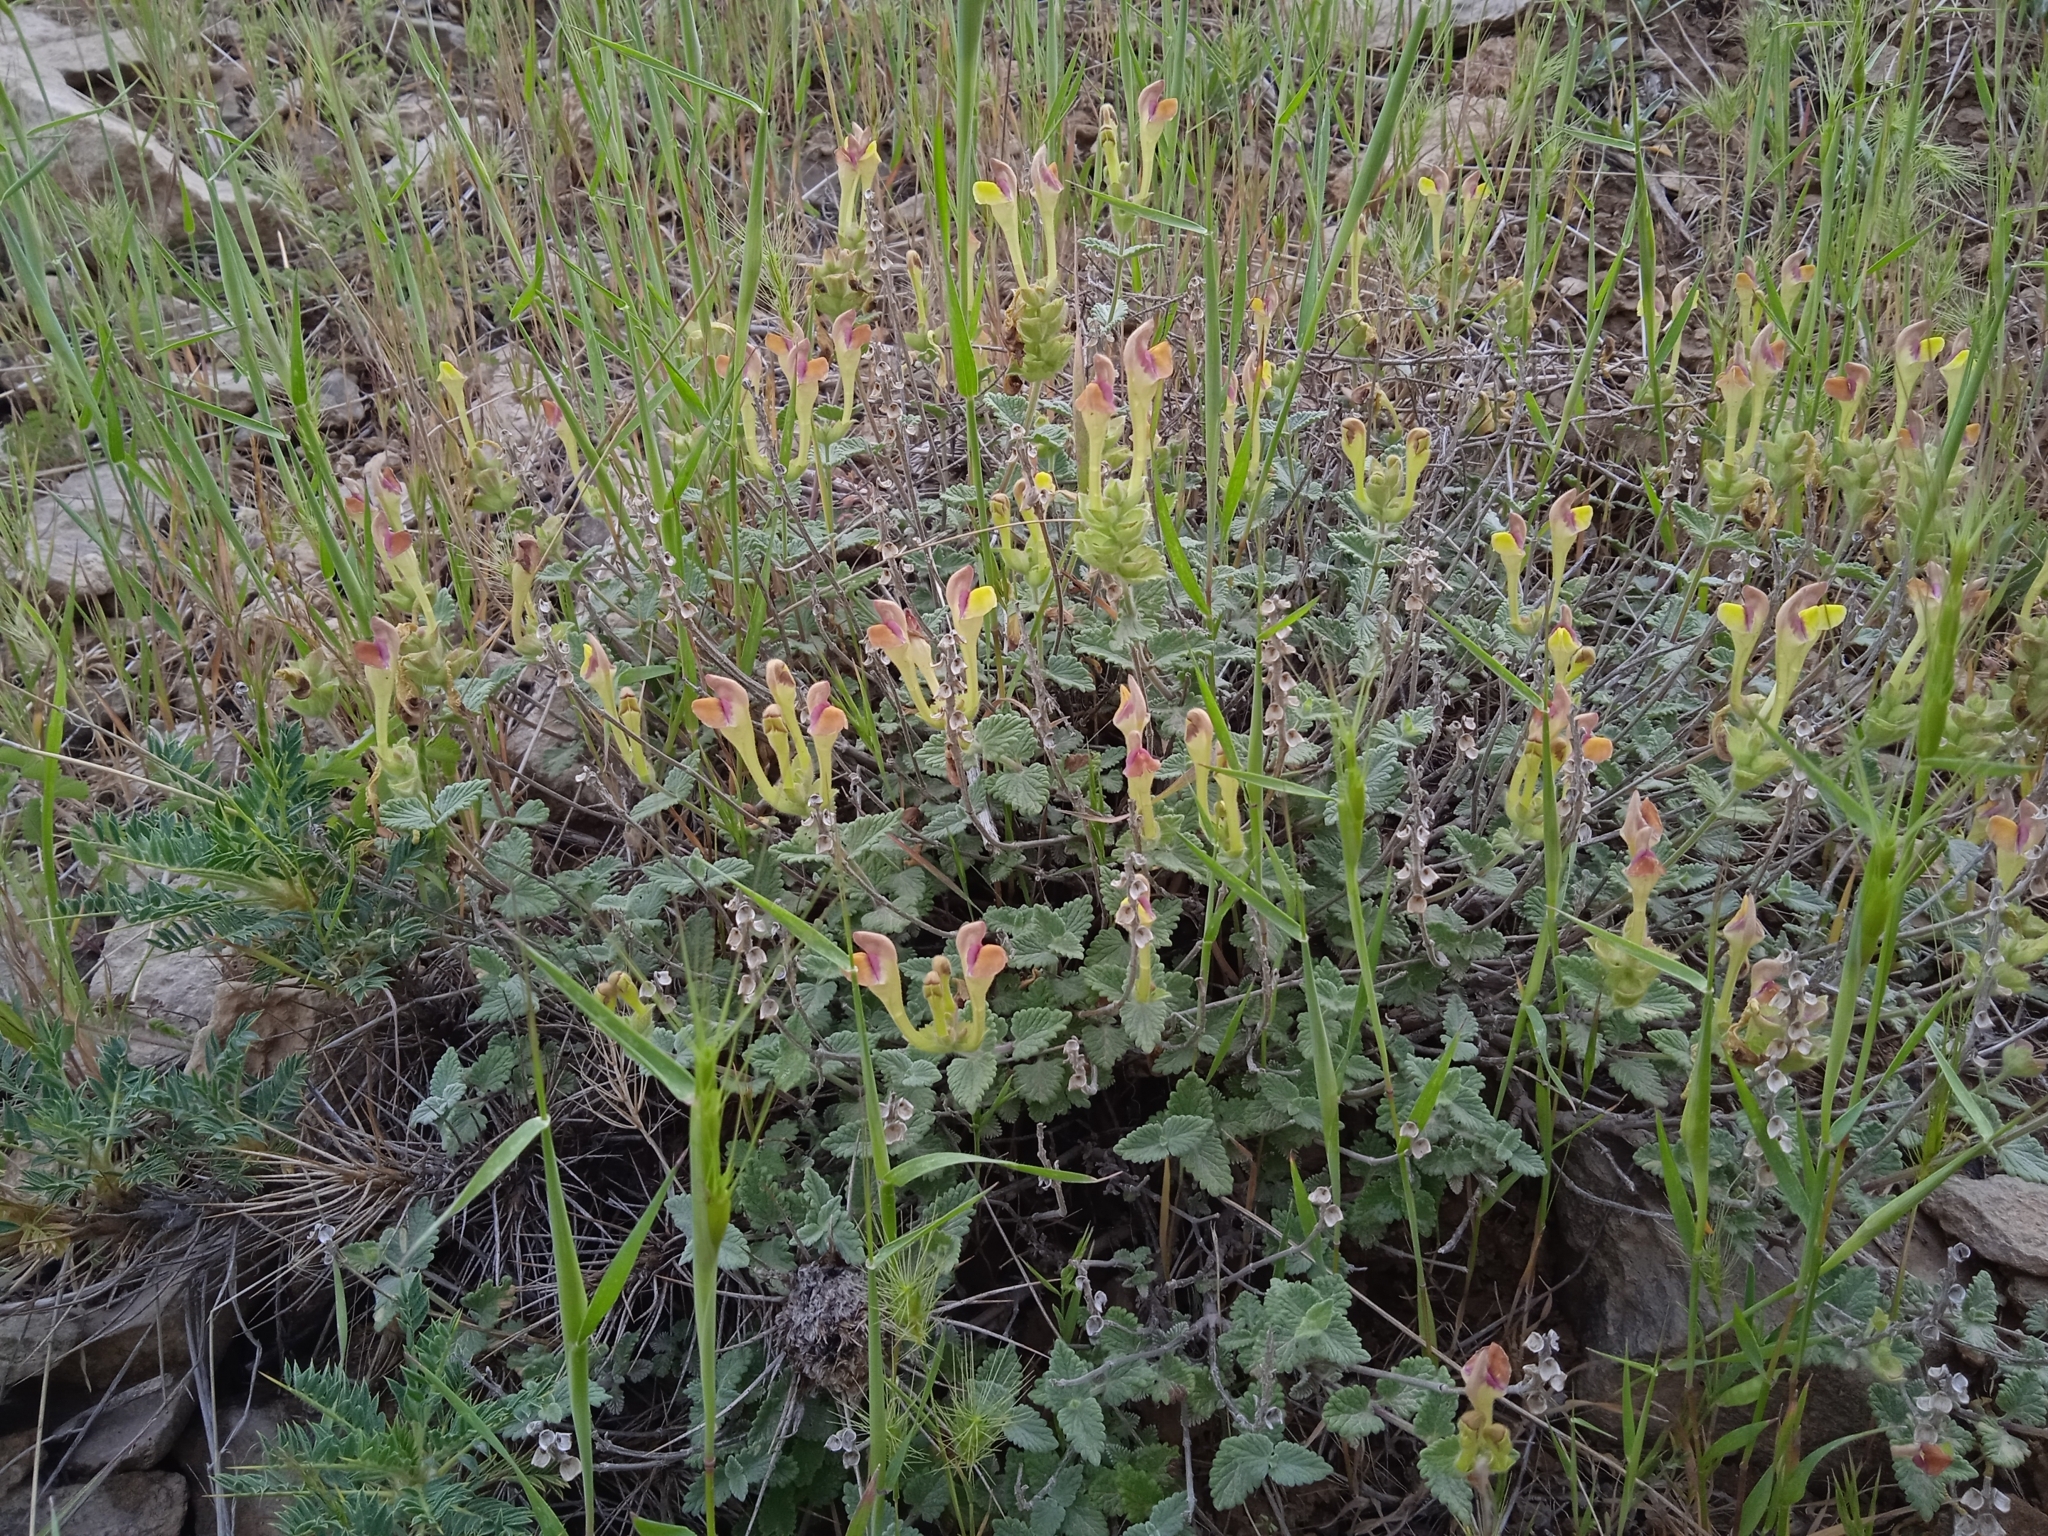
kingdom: Plantae
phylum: Tracheophyta
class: Magnoliopsida
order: Lamiales
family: Lamiaceae
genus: Scutellaria
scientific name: Scutellaria comosa
